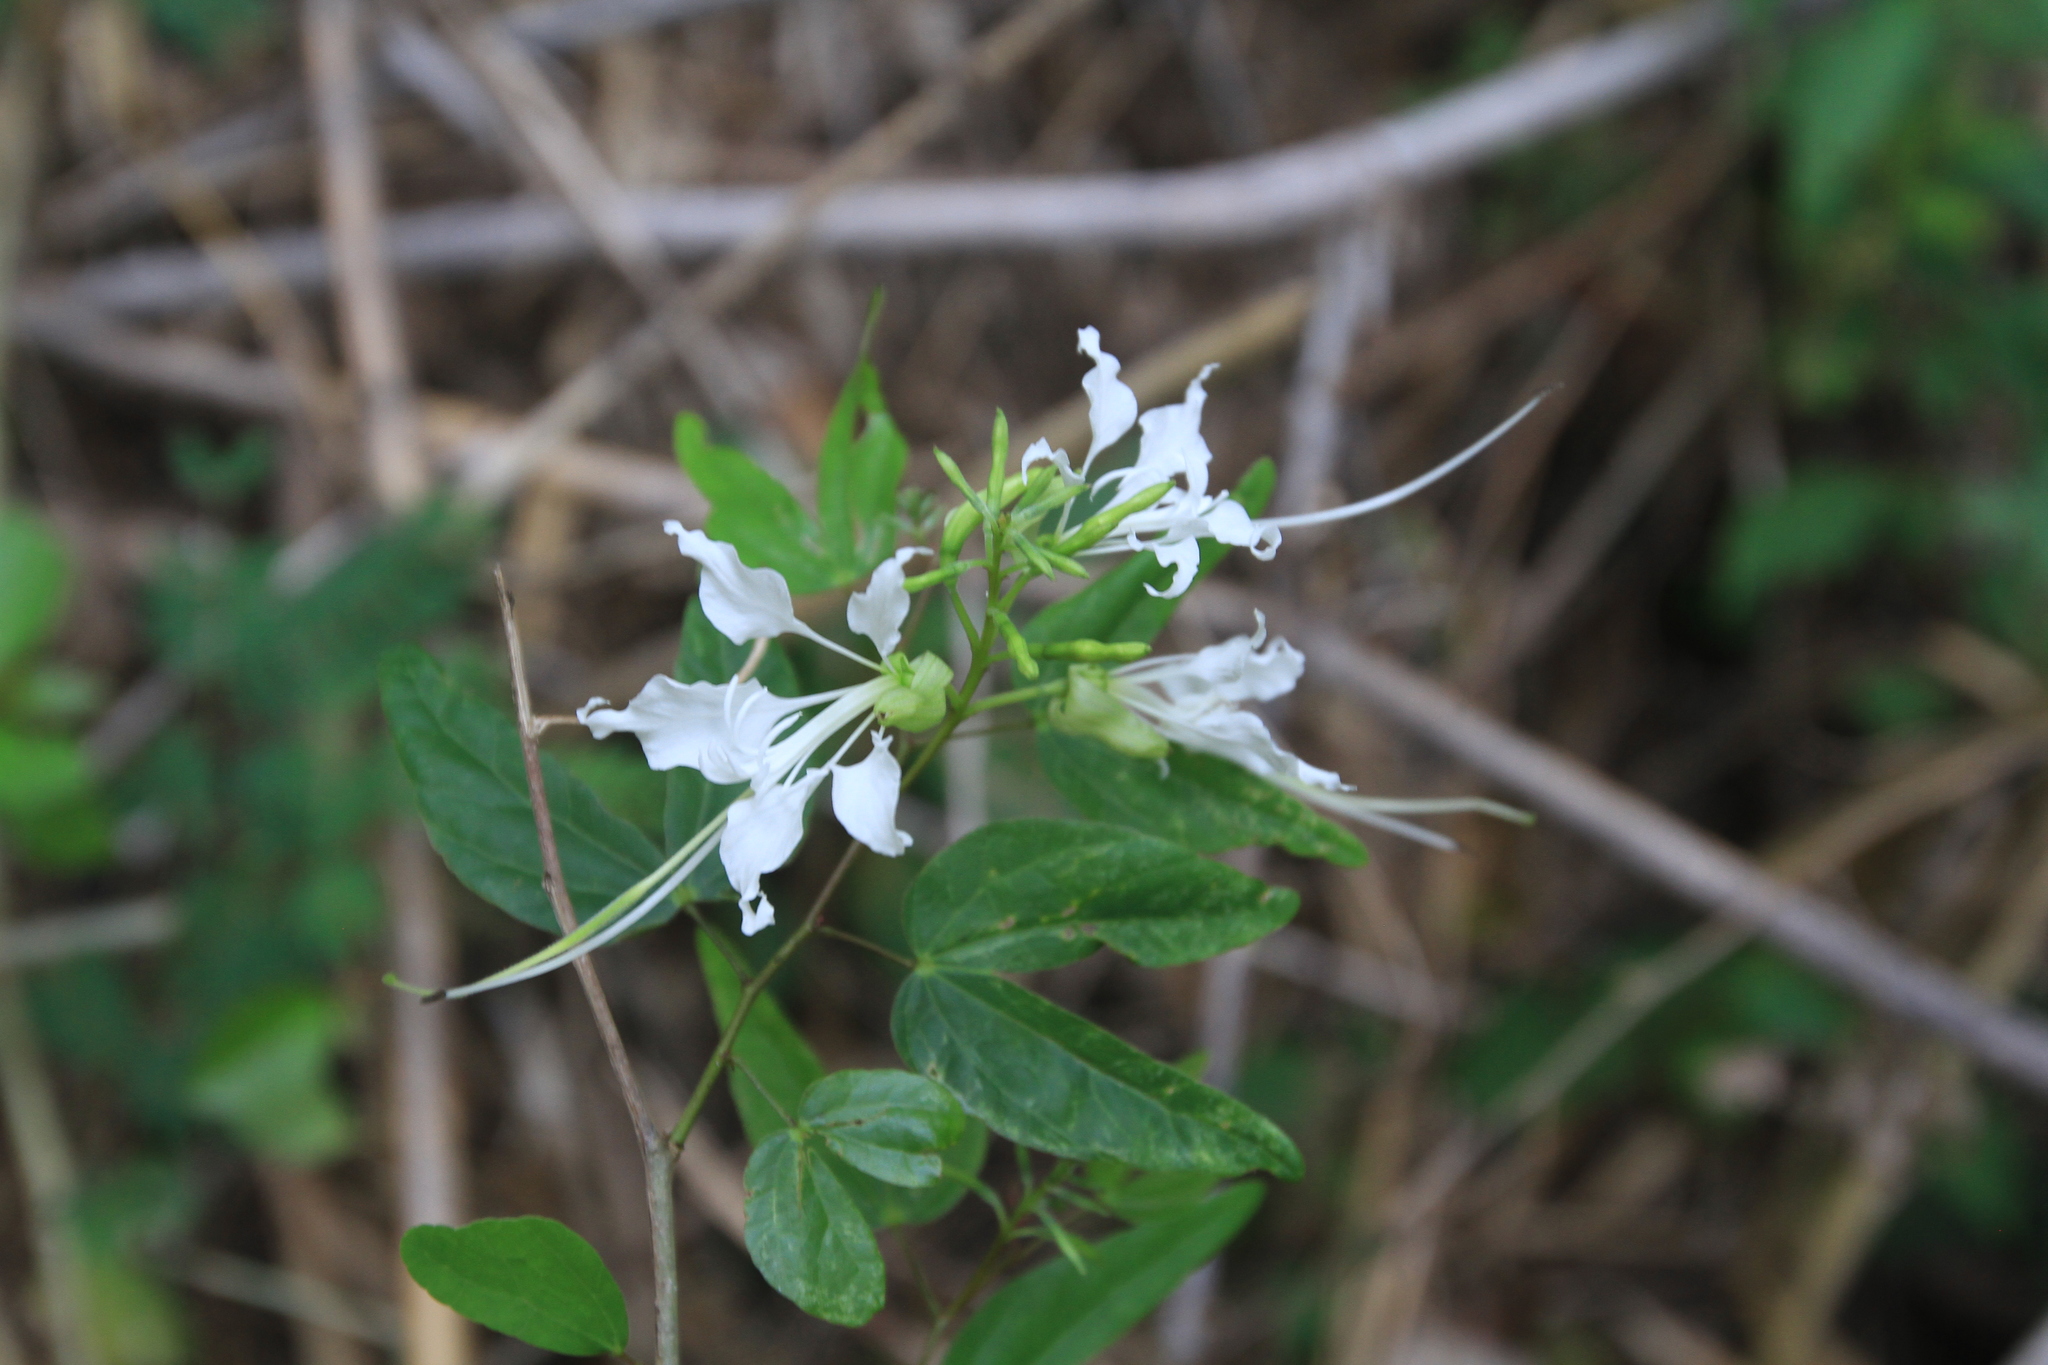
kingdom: Plantae
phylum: Tracheophyta
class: Magnoliopsida
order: Fabales
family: Fabaceae
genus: Bauhinia
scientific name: Bauhinia divaricata
